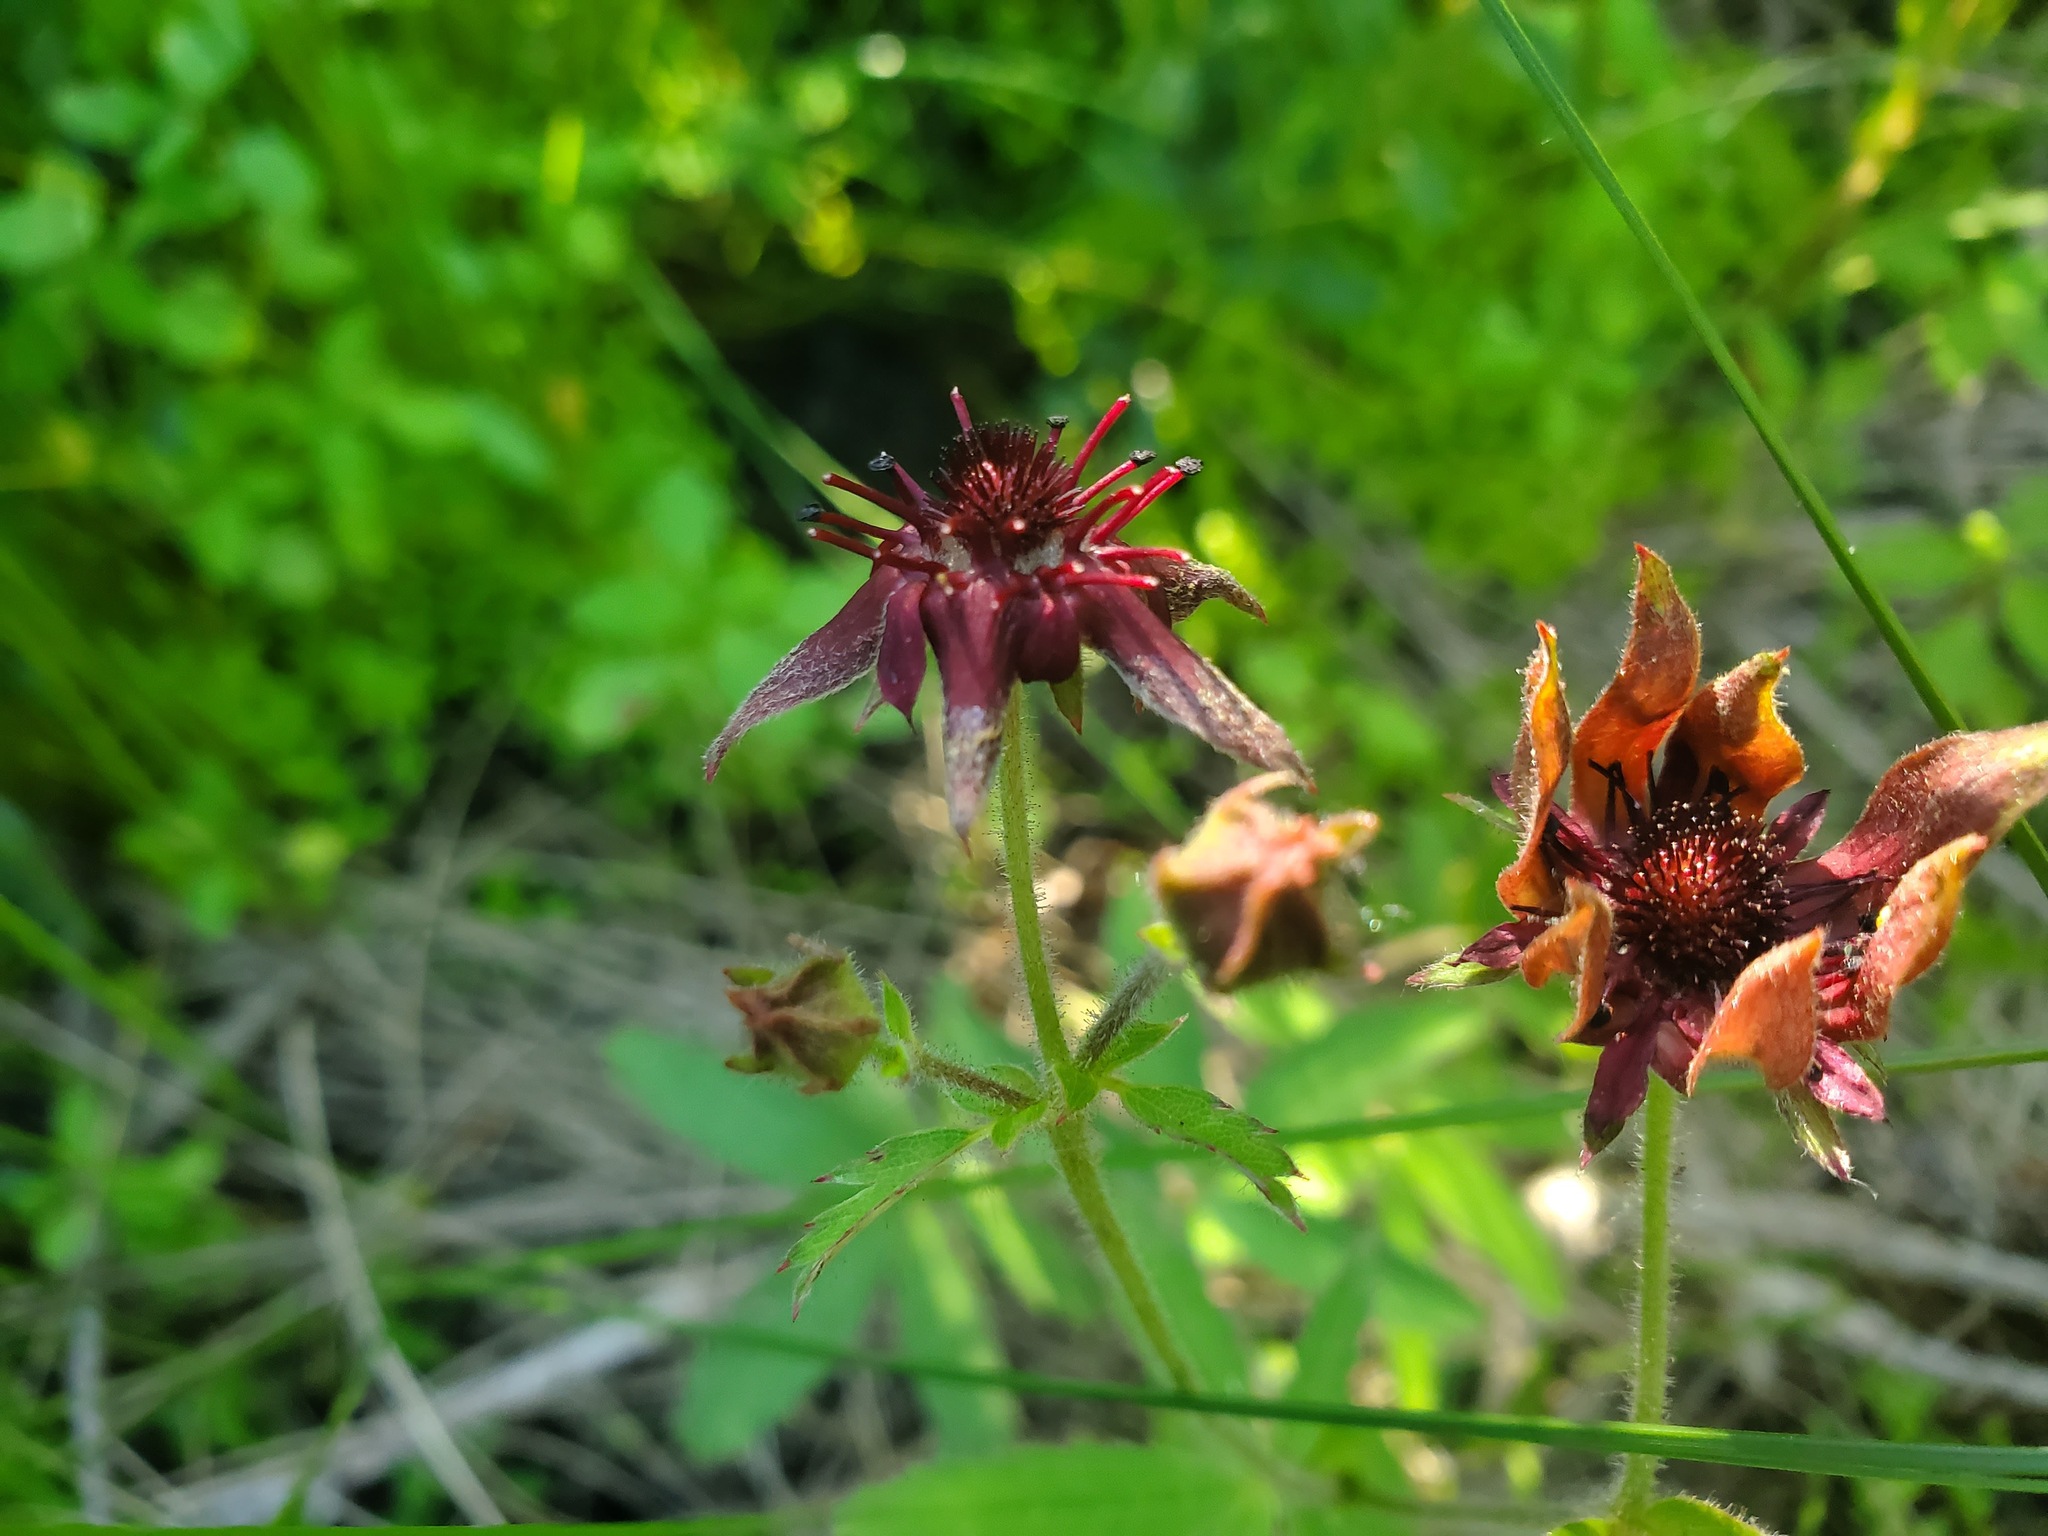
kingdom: Plantae
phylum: Tracheophyta
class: Magnoliopsida
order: Rosales
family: Rosaceae
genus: Comarum
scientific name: Comarum palustre
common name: Marsh cinquefoil
